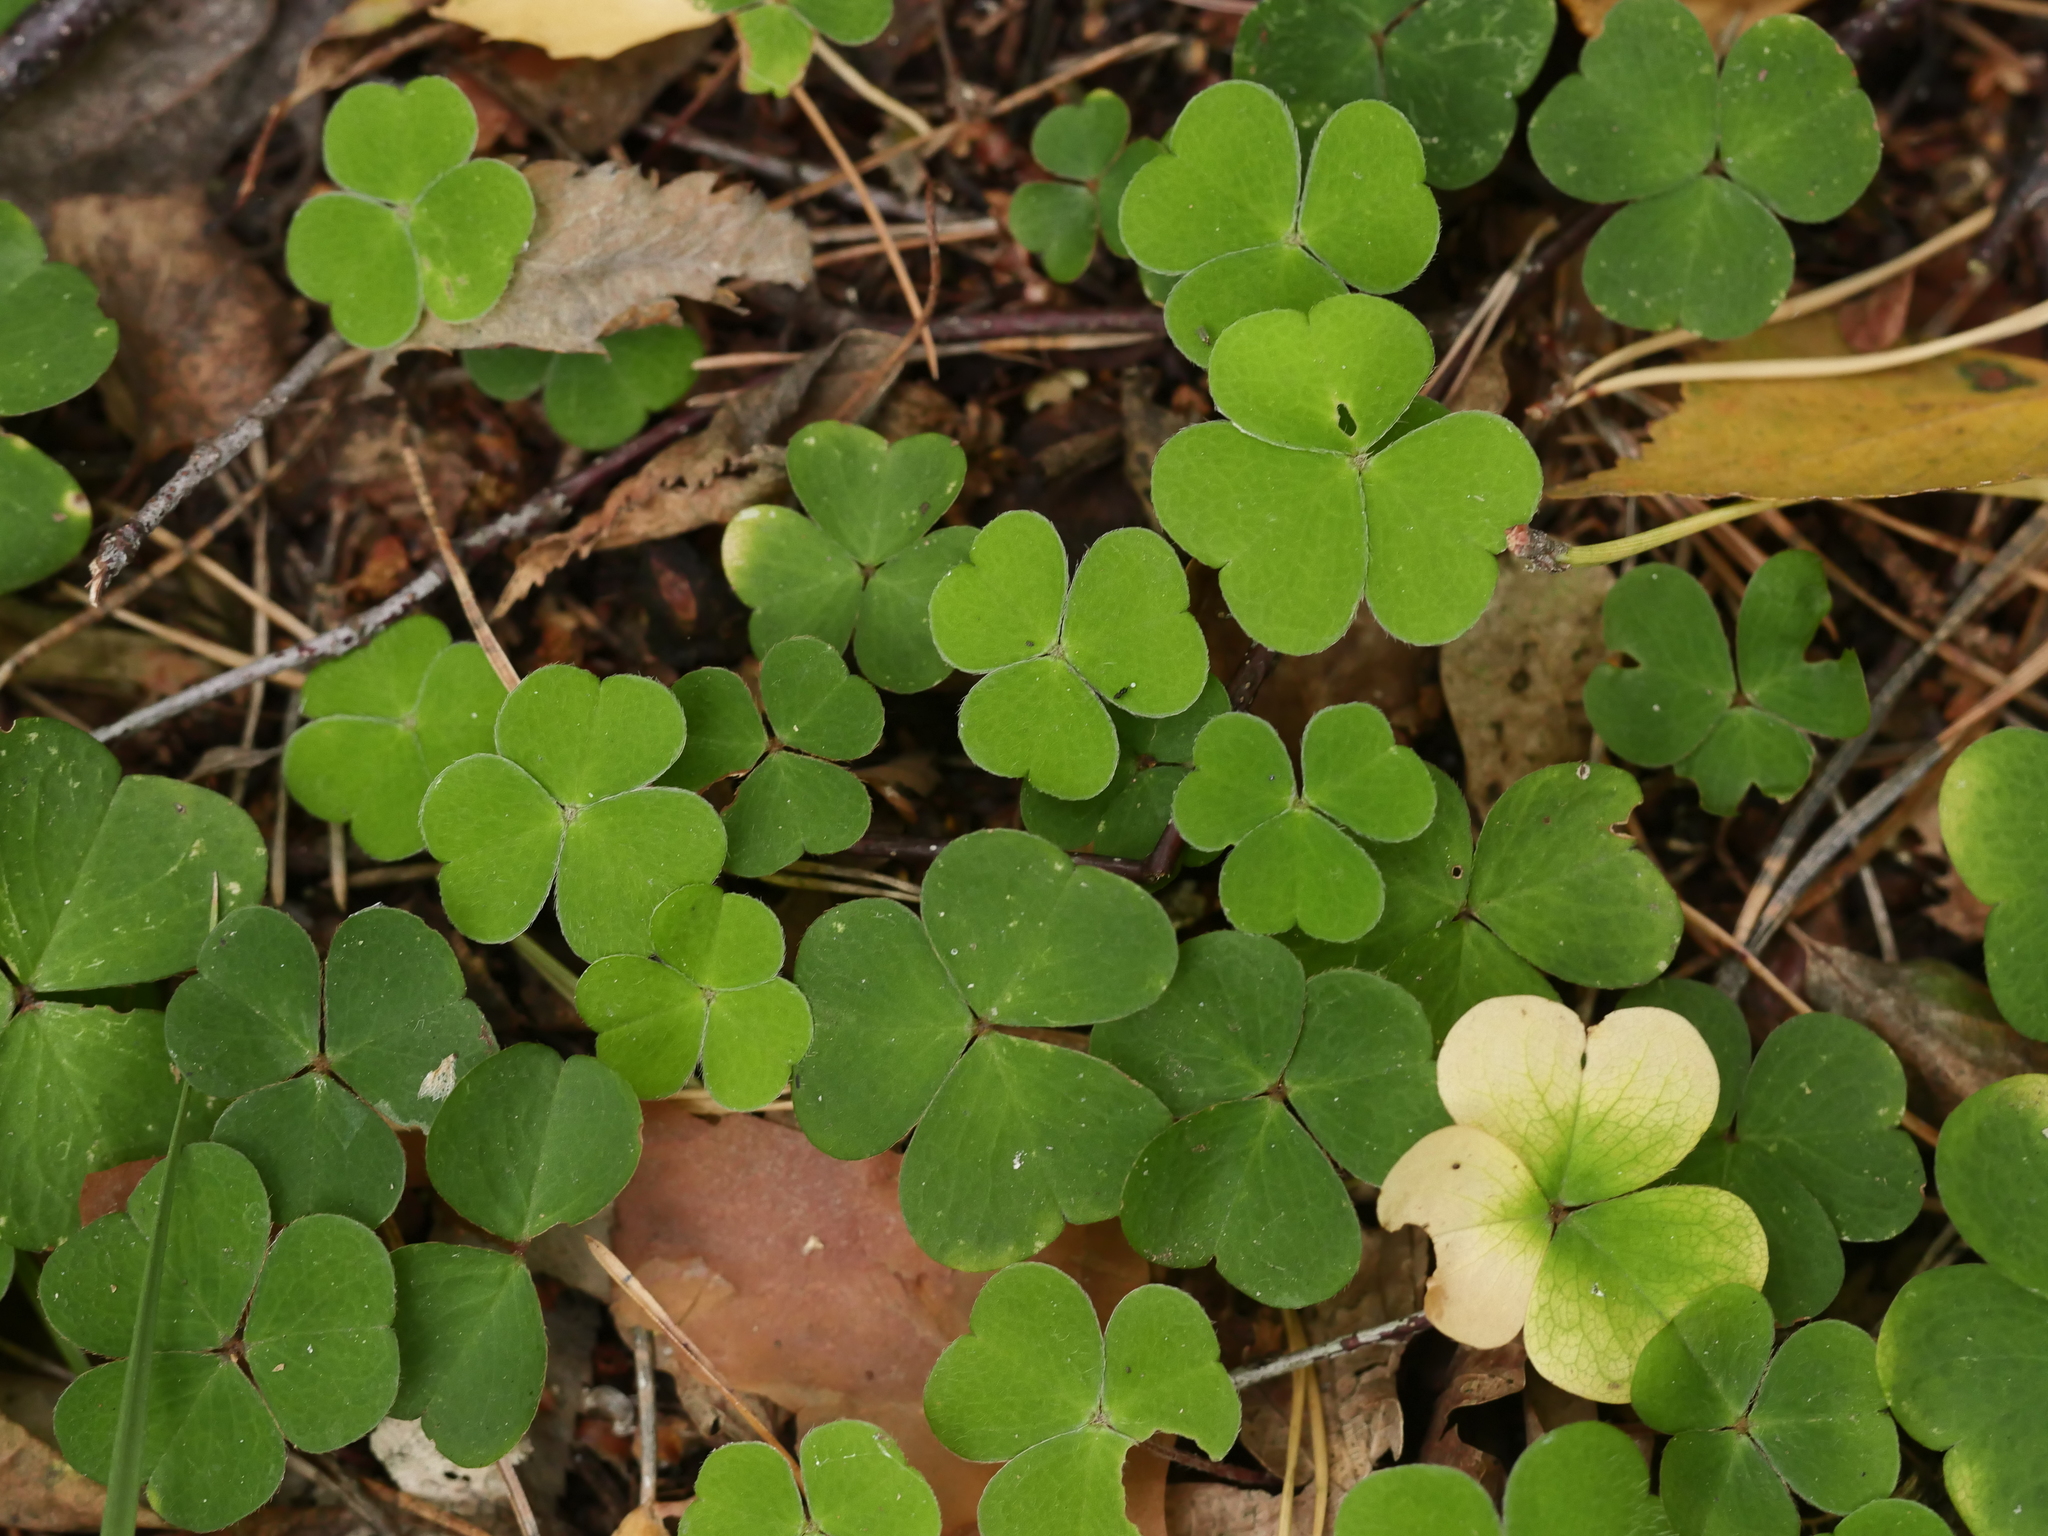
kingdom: Plantae
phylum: Tracheophyta
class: Magnoliopsida
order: Oxalidales
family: Oxalidaceae
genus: Oxalis
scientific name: Oxalis acetosella
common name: Wood-sorrel
